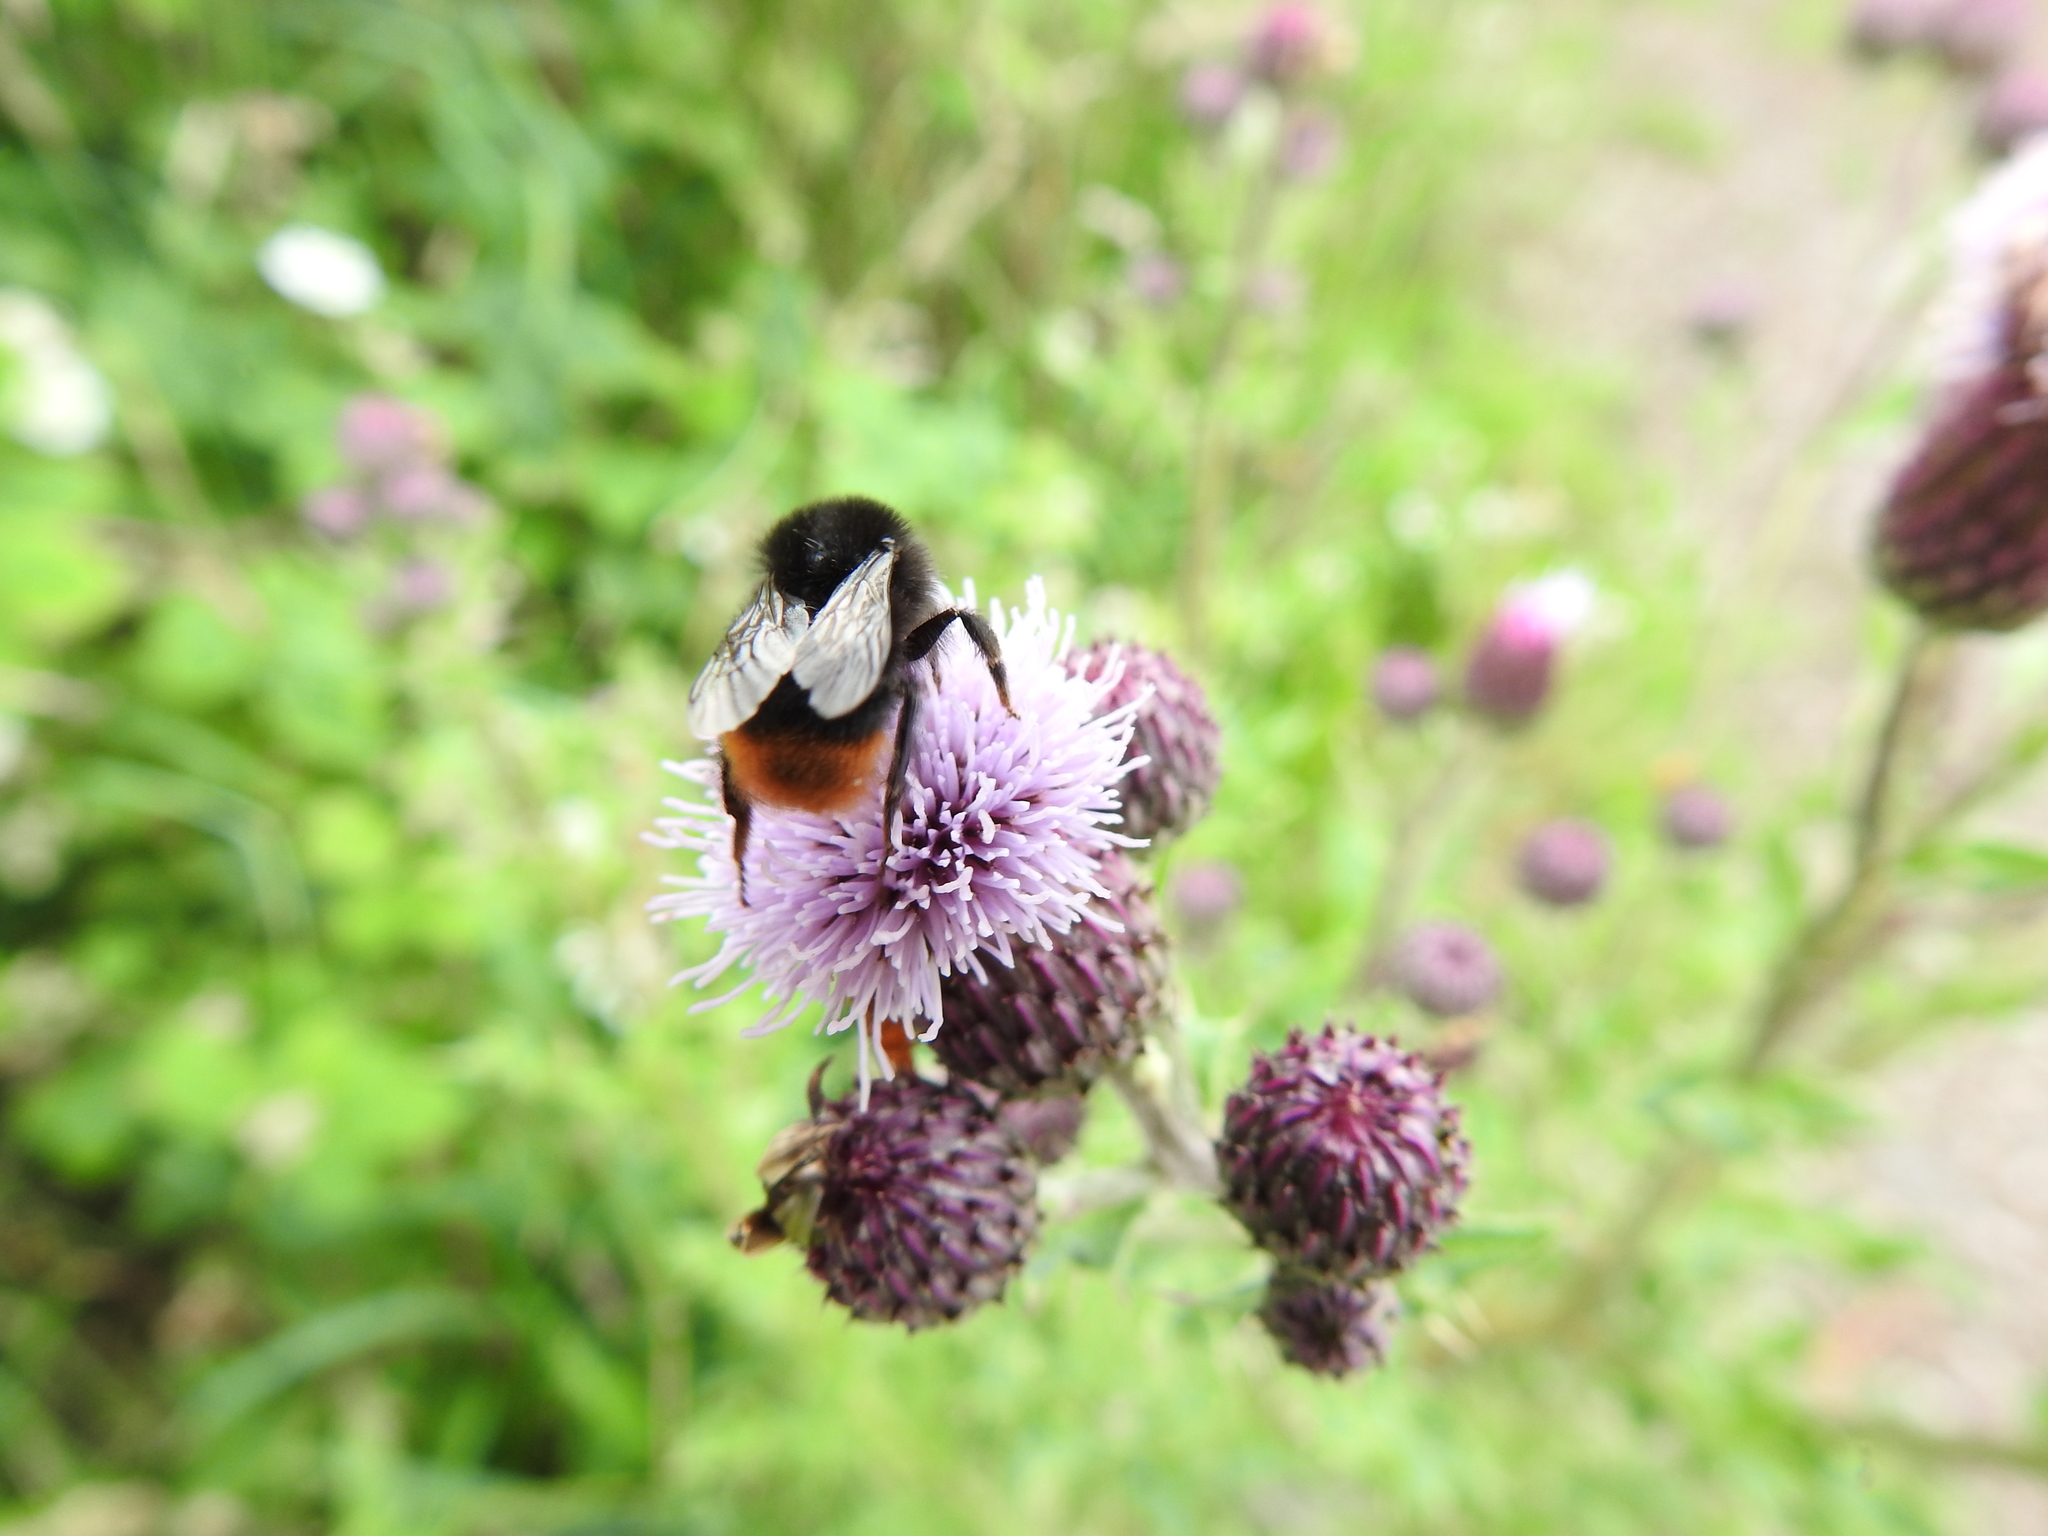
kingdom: Animalia
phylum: Arthropoda
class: Insecta
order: Hymenoptera
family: Apidae
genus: Bombus
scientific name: Bombus lapidarius
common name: Large red-tailed humble-bee
